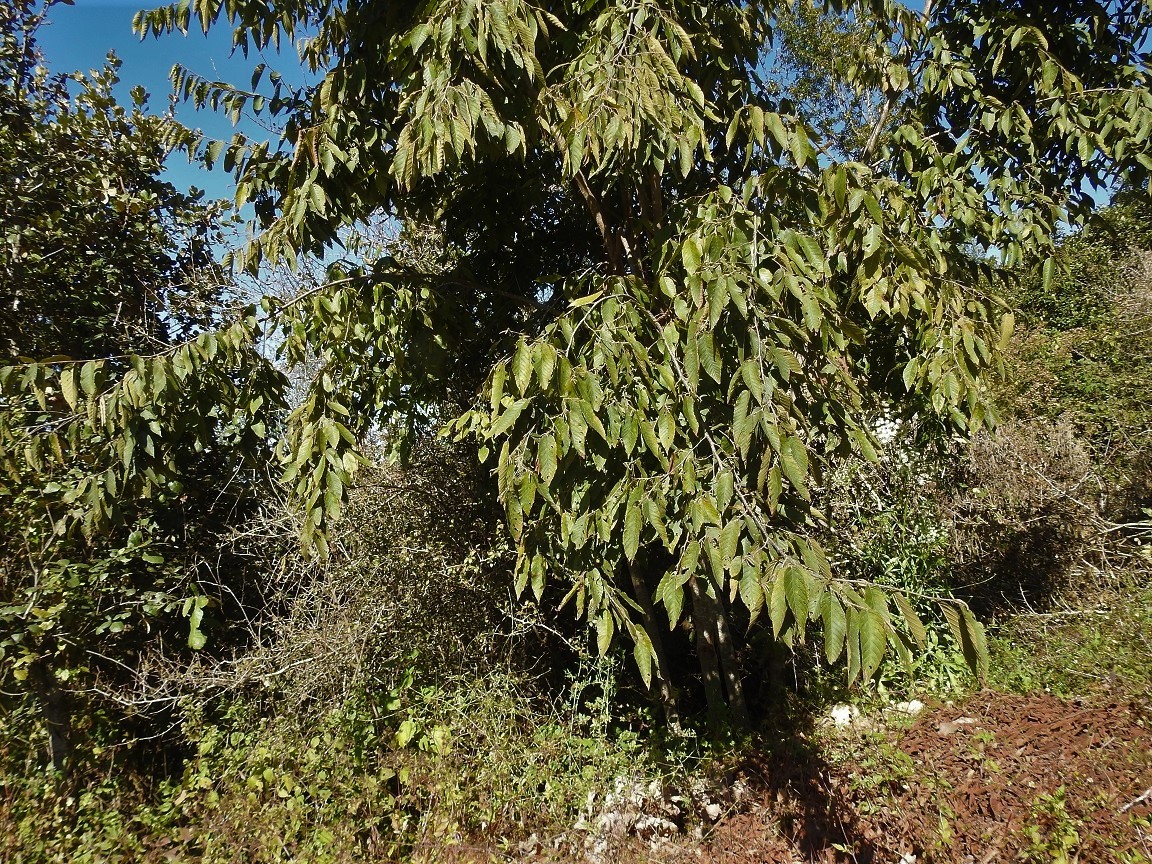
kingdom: Plantae
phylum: Tracheophyta
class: Magnoliopsida
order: Fagales
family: Betulaceae
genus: Ostrya
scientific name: Ostrya virginiana
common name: Ironwood
